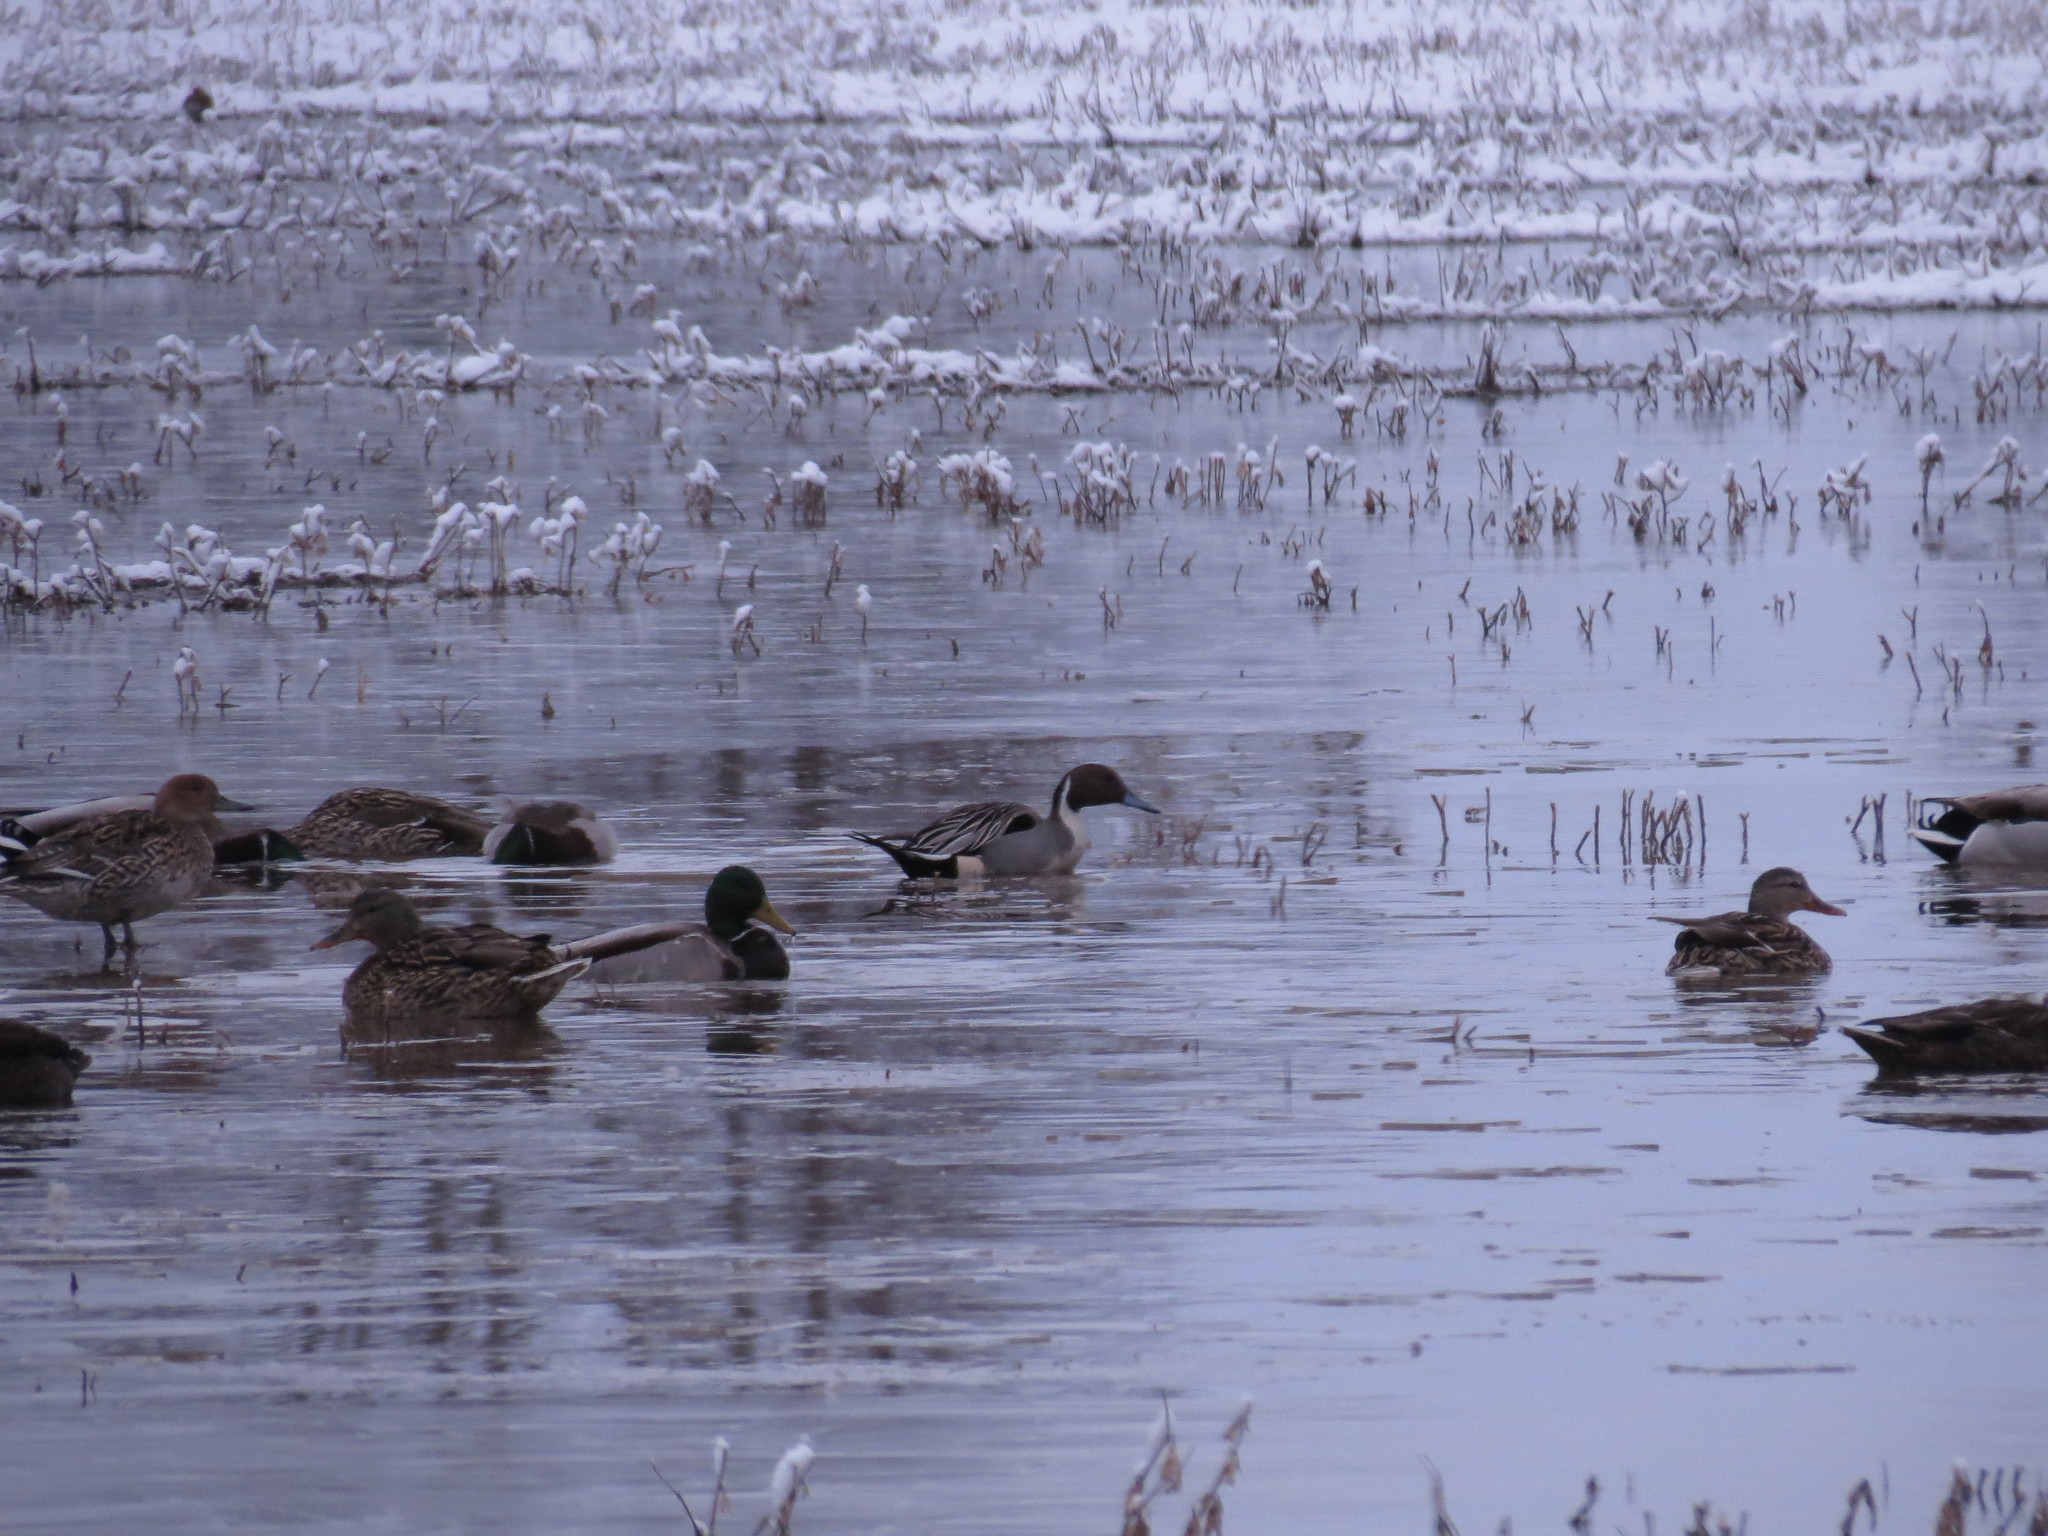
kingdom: Animalia
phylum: Chordata
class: Aves
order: Anseriformes
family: Anatidae
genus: Anas
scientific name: Anas platyrhynchos
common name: Mallard
